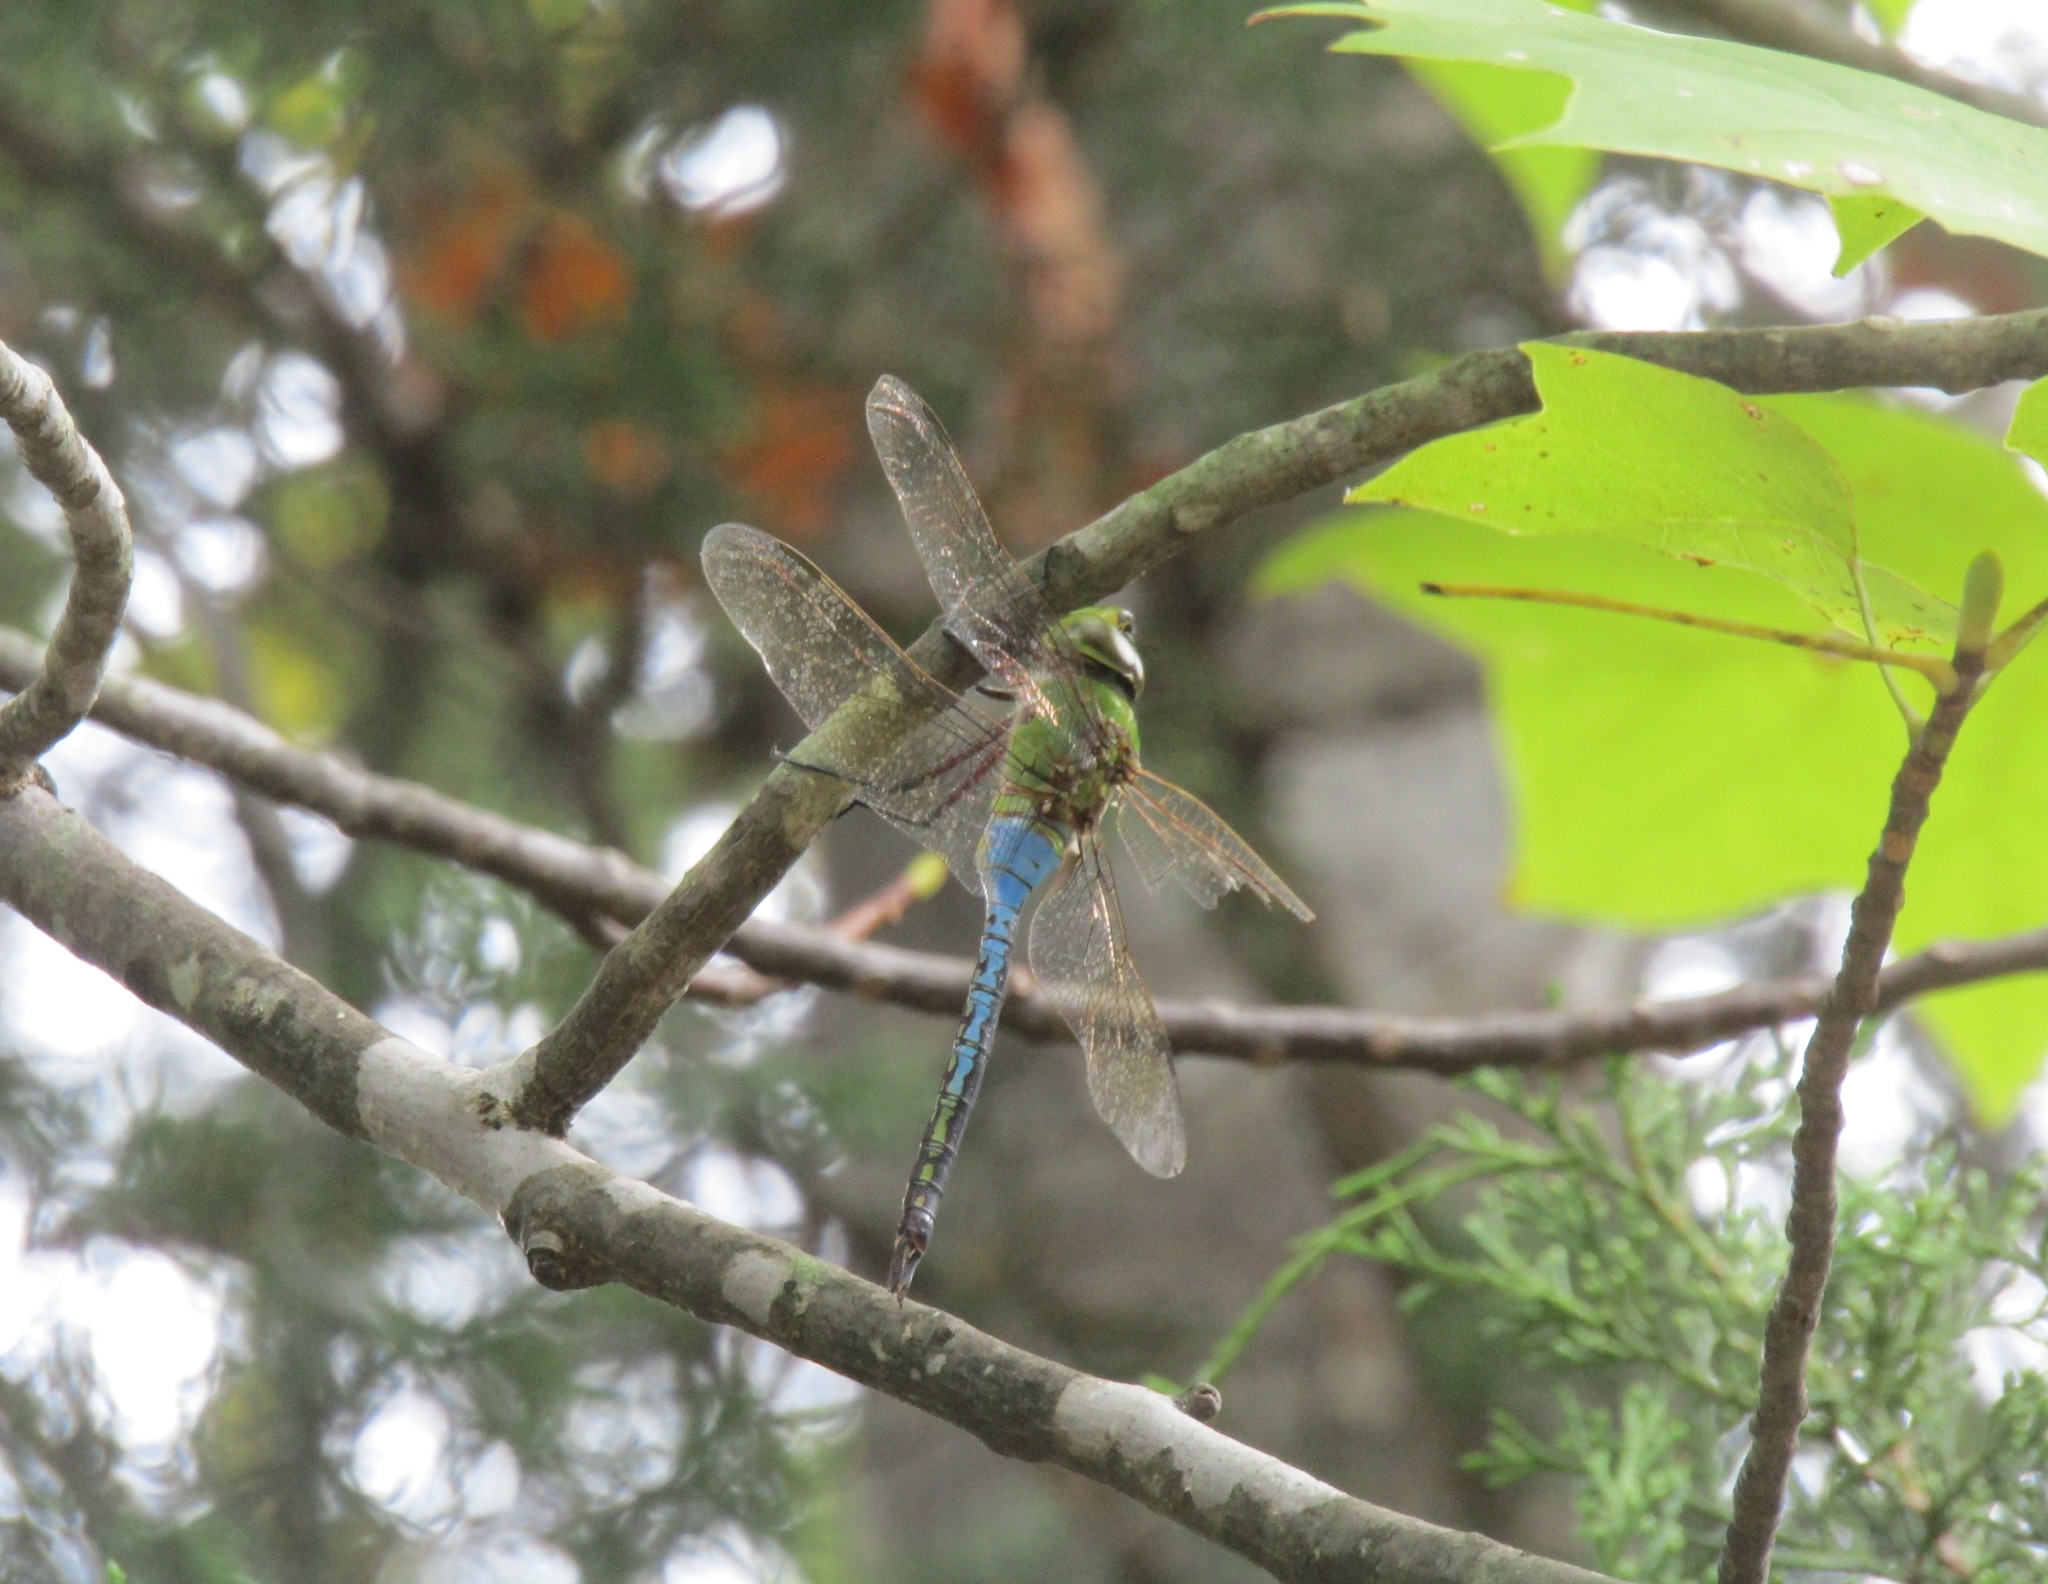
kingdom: Animalia
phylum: Arthropoda
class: Insecta
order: Odonata
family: Aeshnidae
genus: Anax
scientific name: Anax junius
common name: Common green darner
